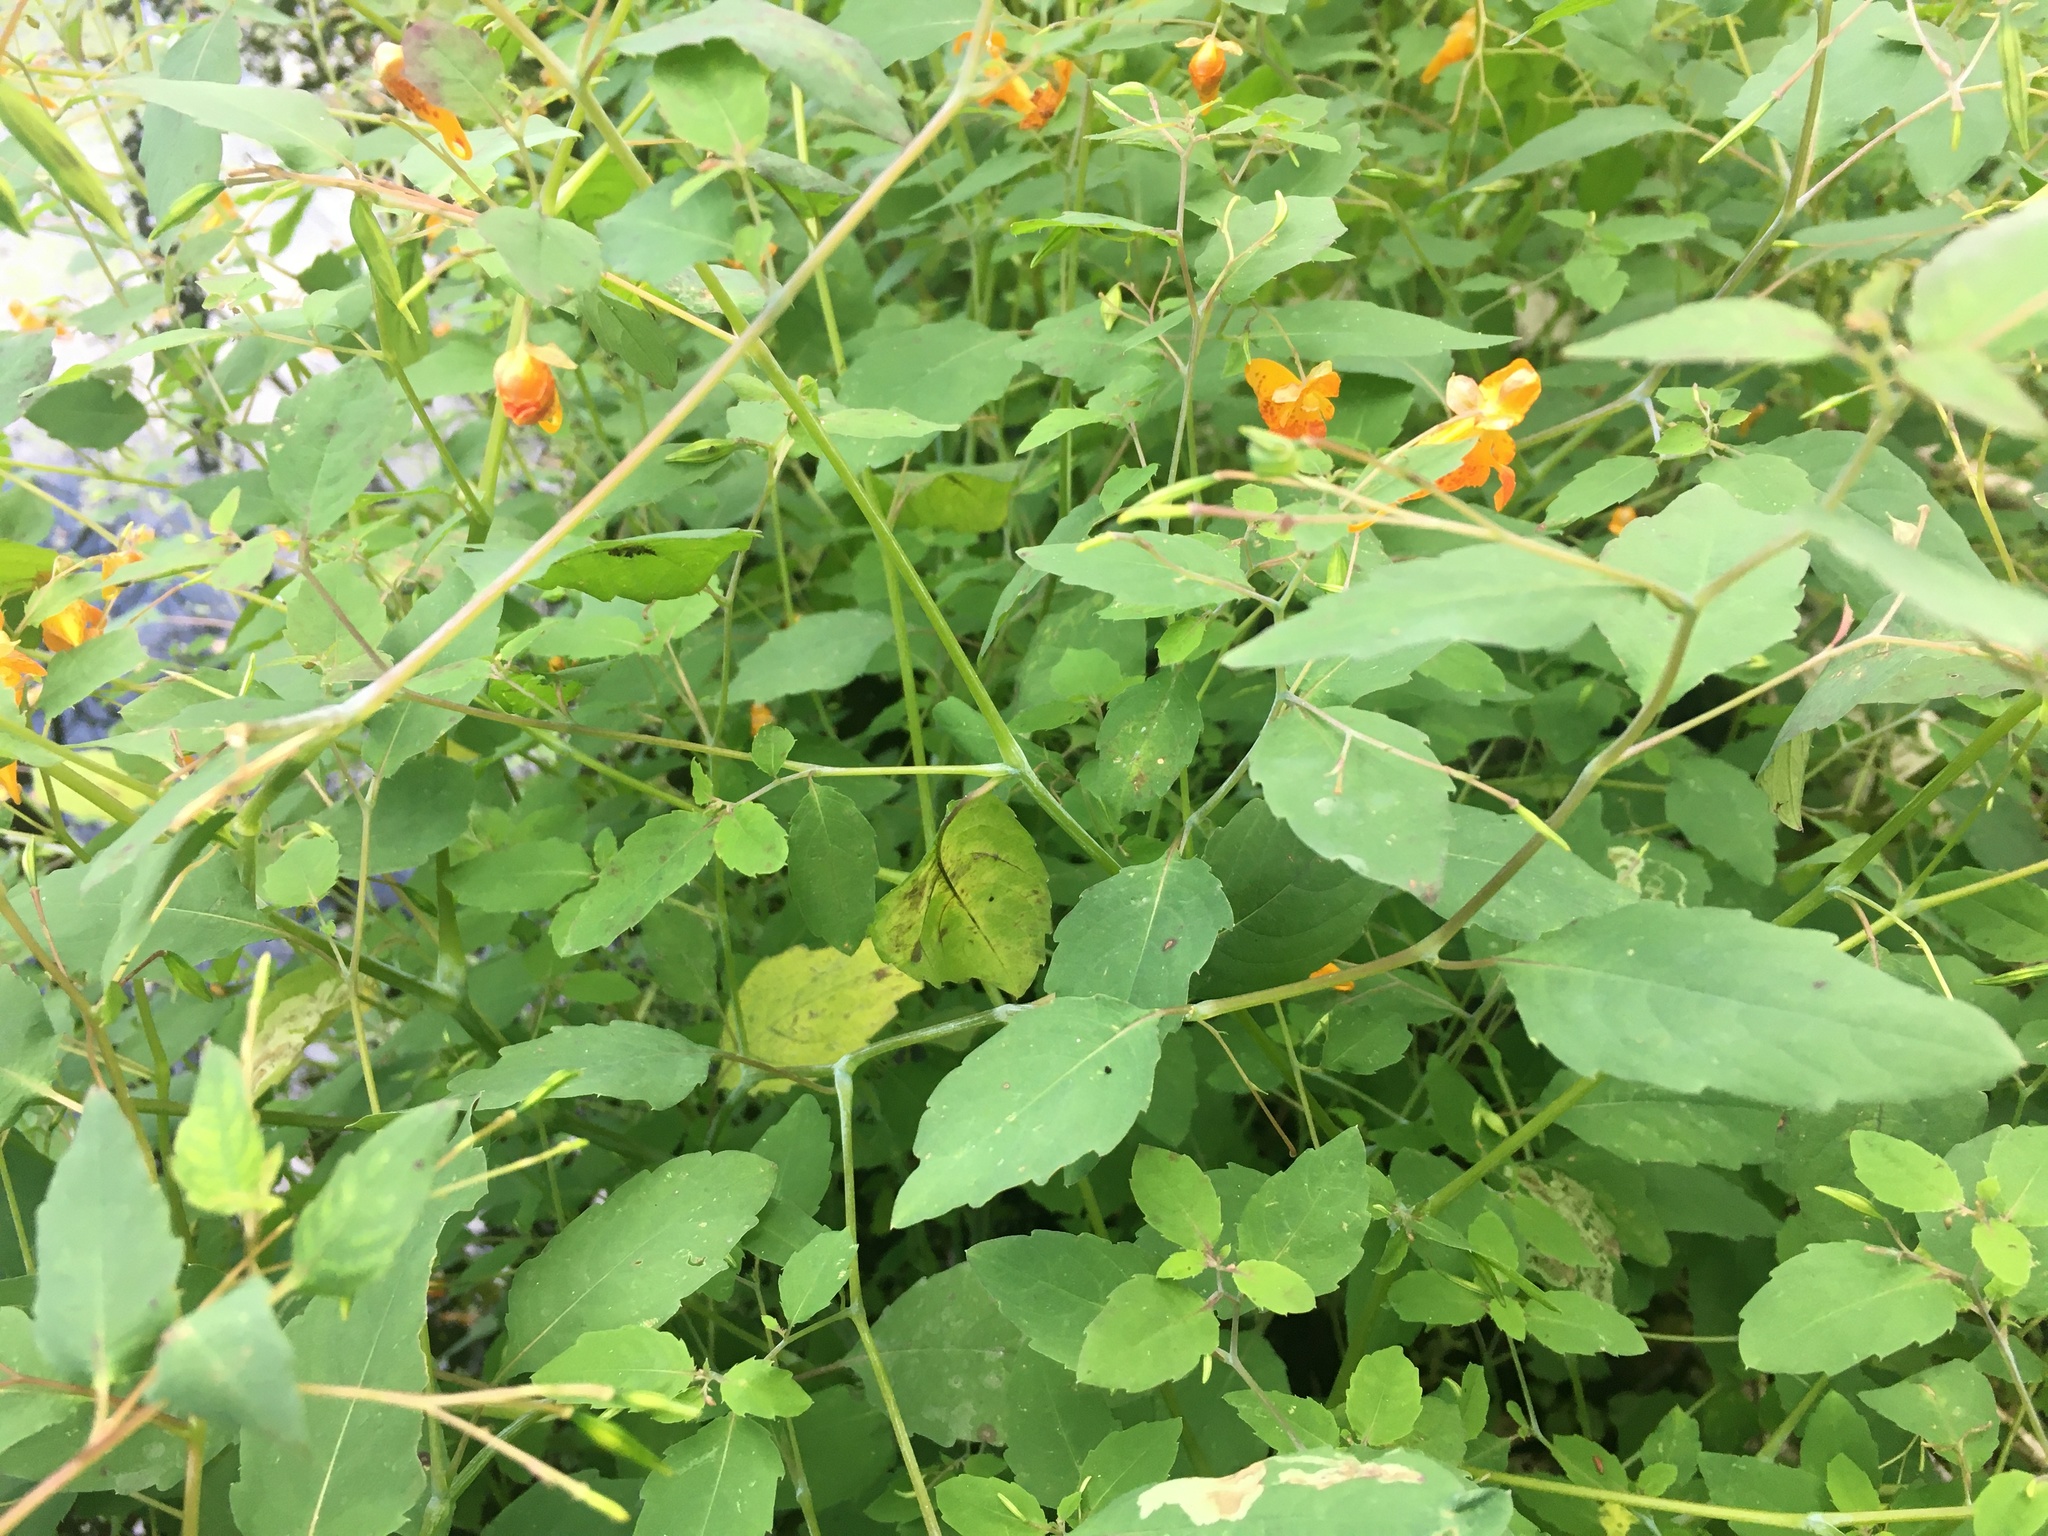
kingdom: Plantae
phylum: Tracheophyta
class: Magnoliopsida
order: Ericales
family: Balsaminaceae
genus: Impatiens
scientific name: Impatiens capensis
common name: Orange balsam
